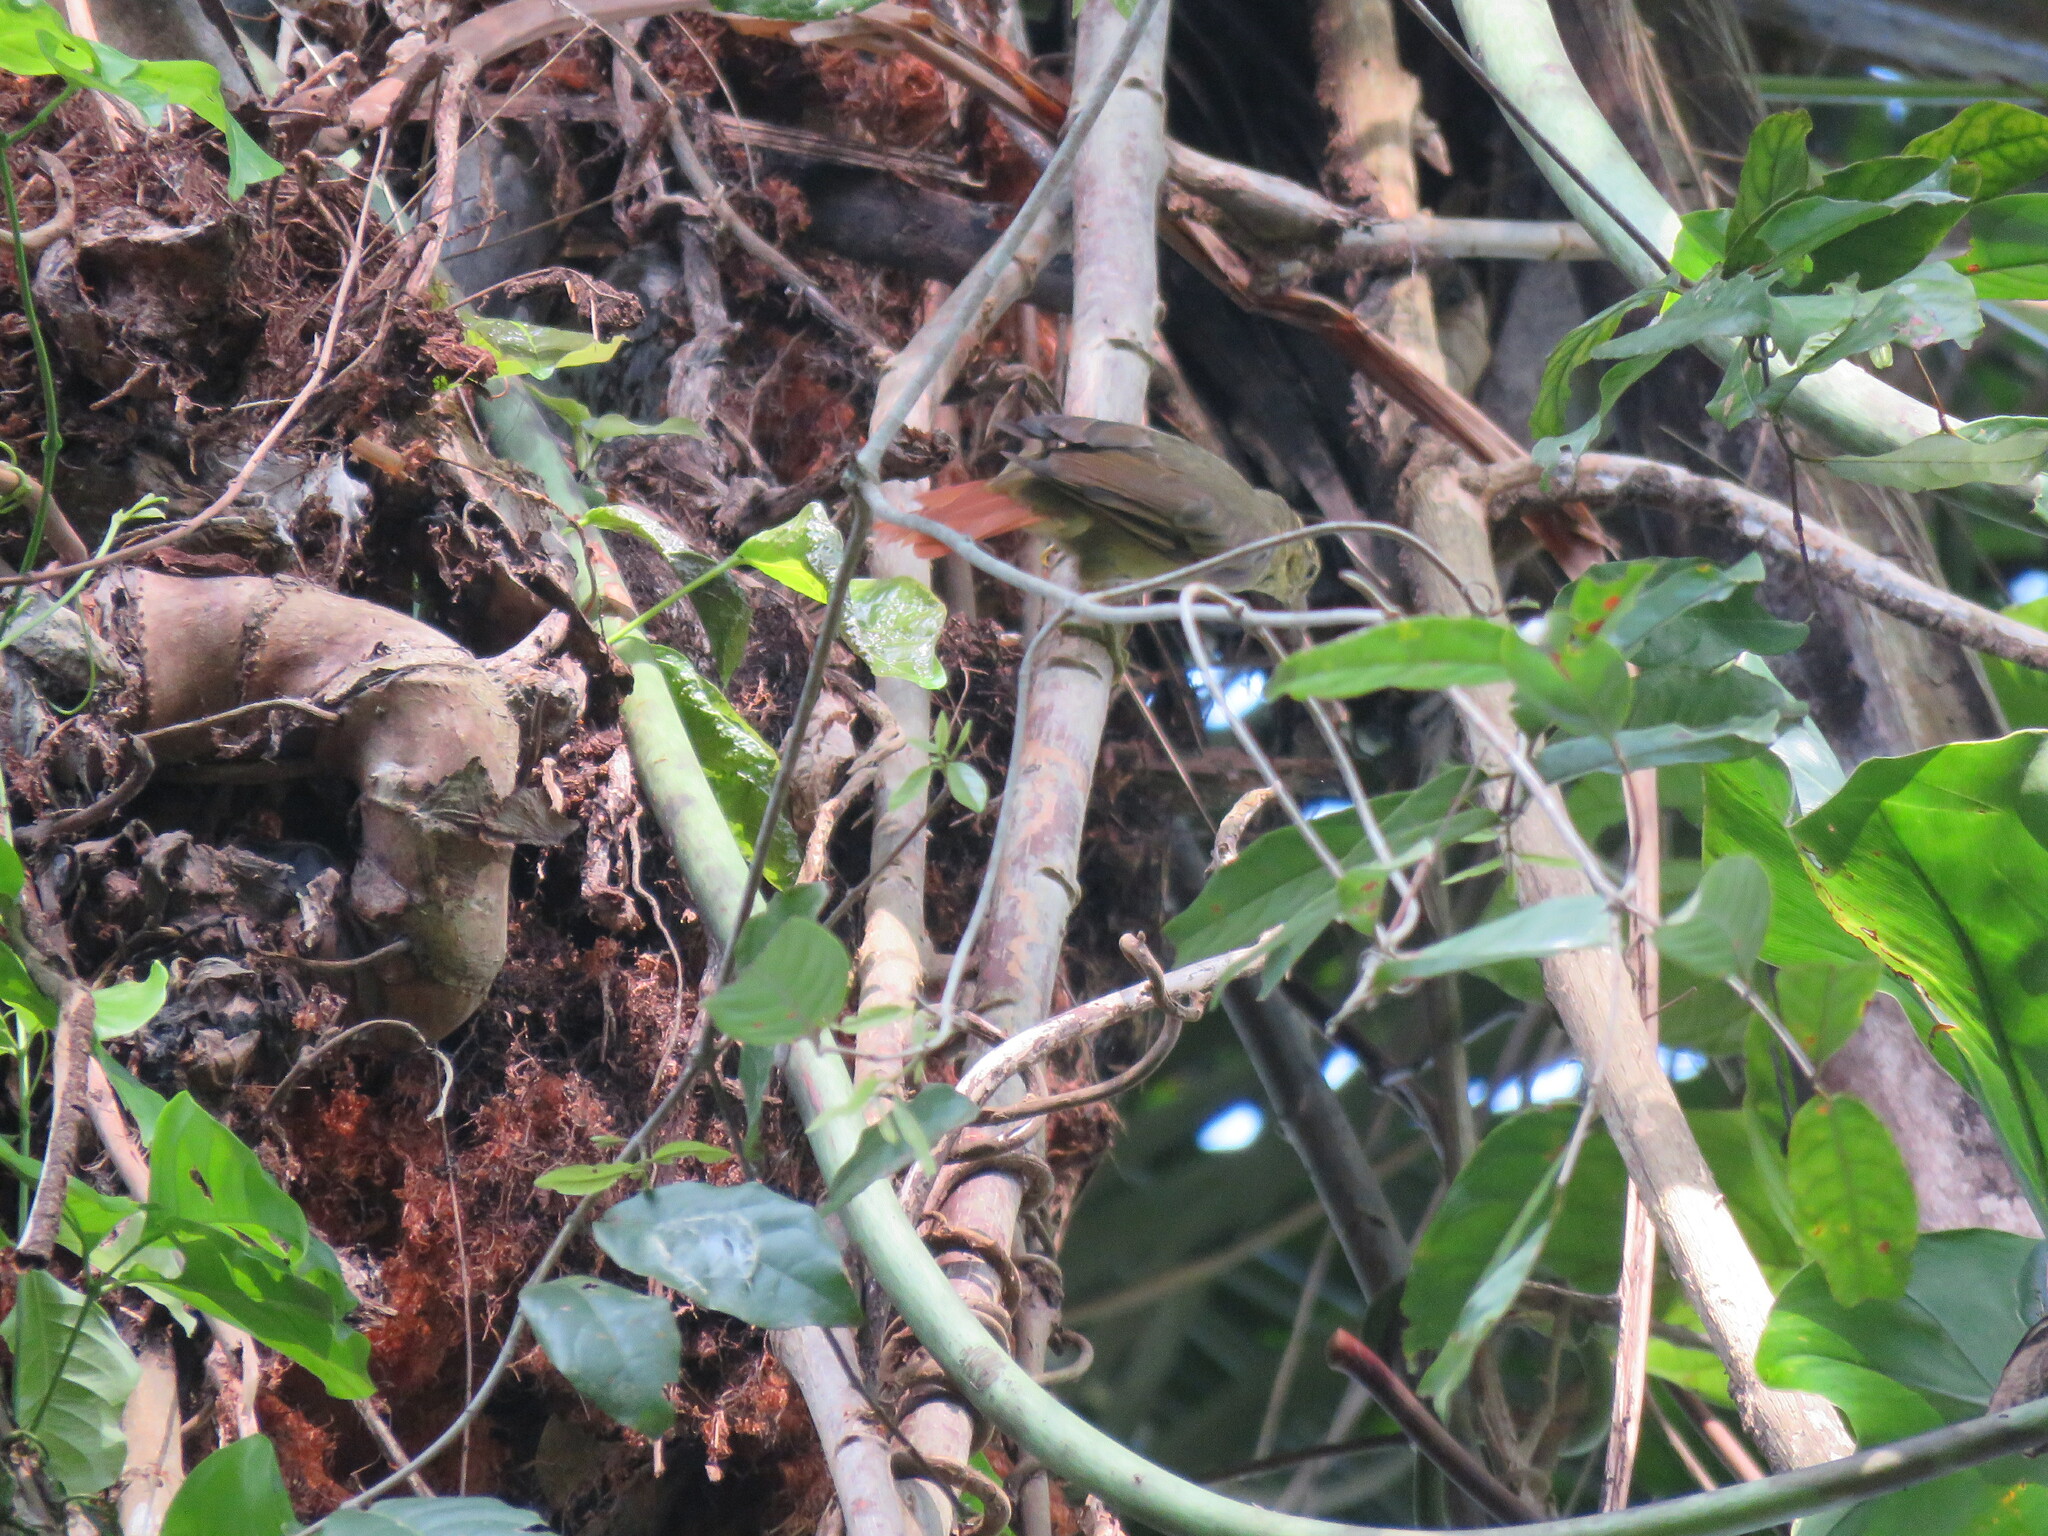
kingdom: Animalia
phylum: Chordata
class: Aves
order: Passeriformes
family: Furnariidae
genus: Philydor
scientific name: Philydor ruficaudatum
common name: Rufous-tailed foliage-gleaner
